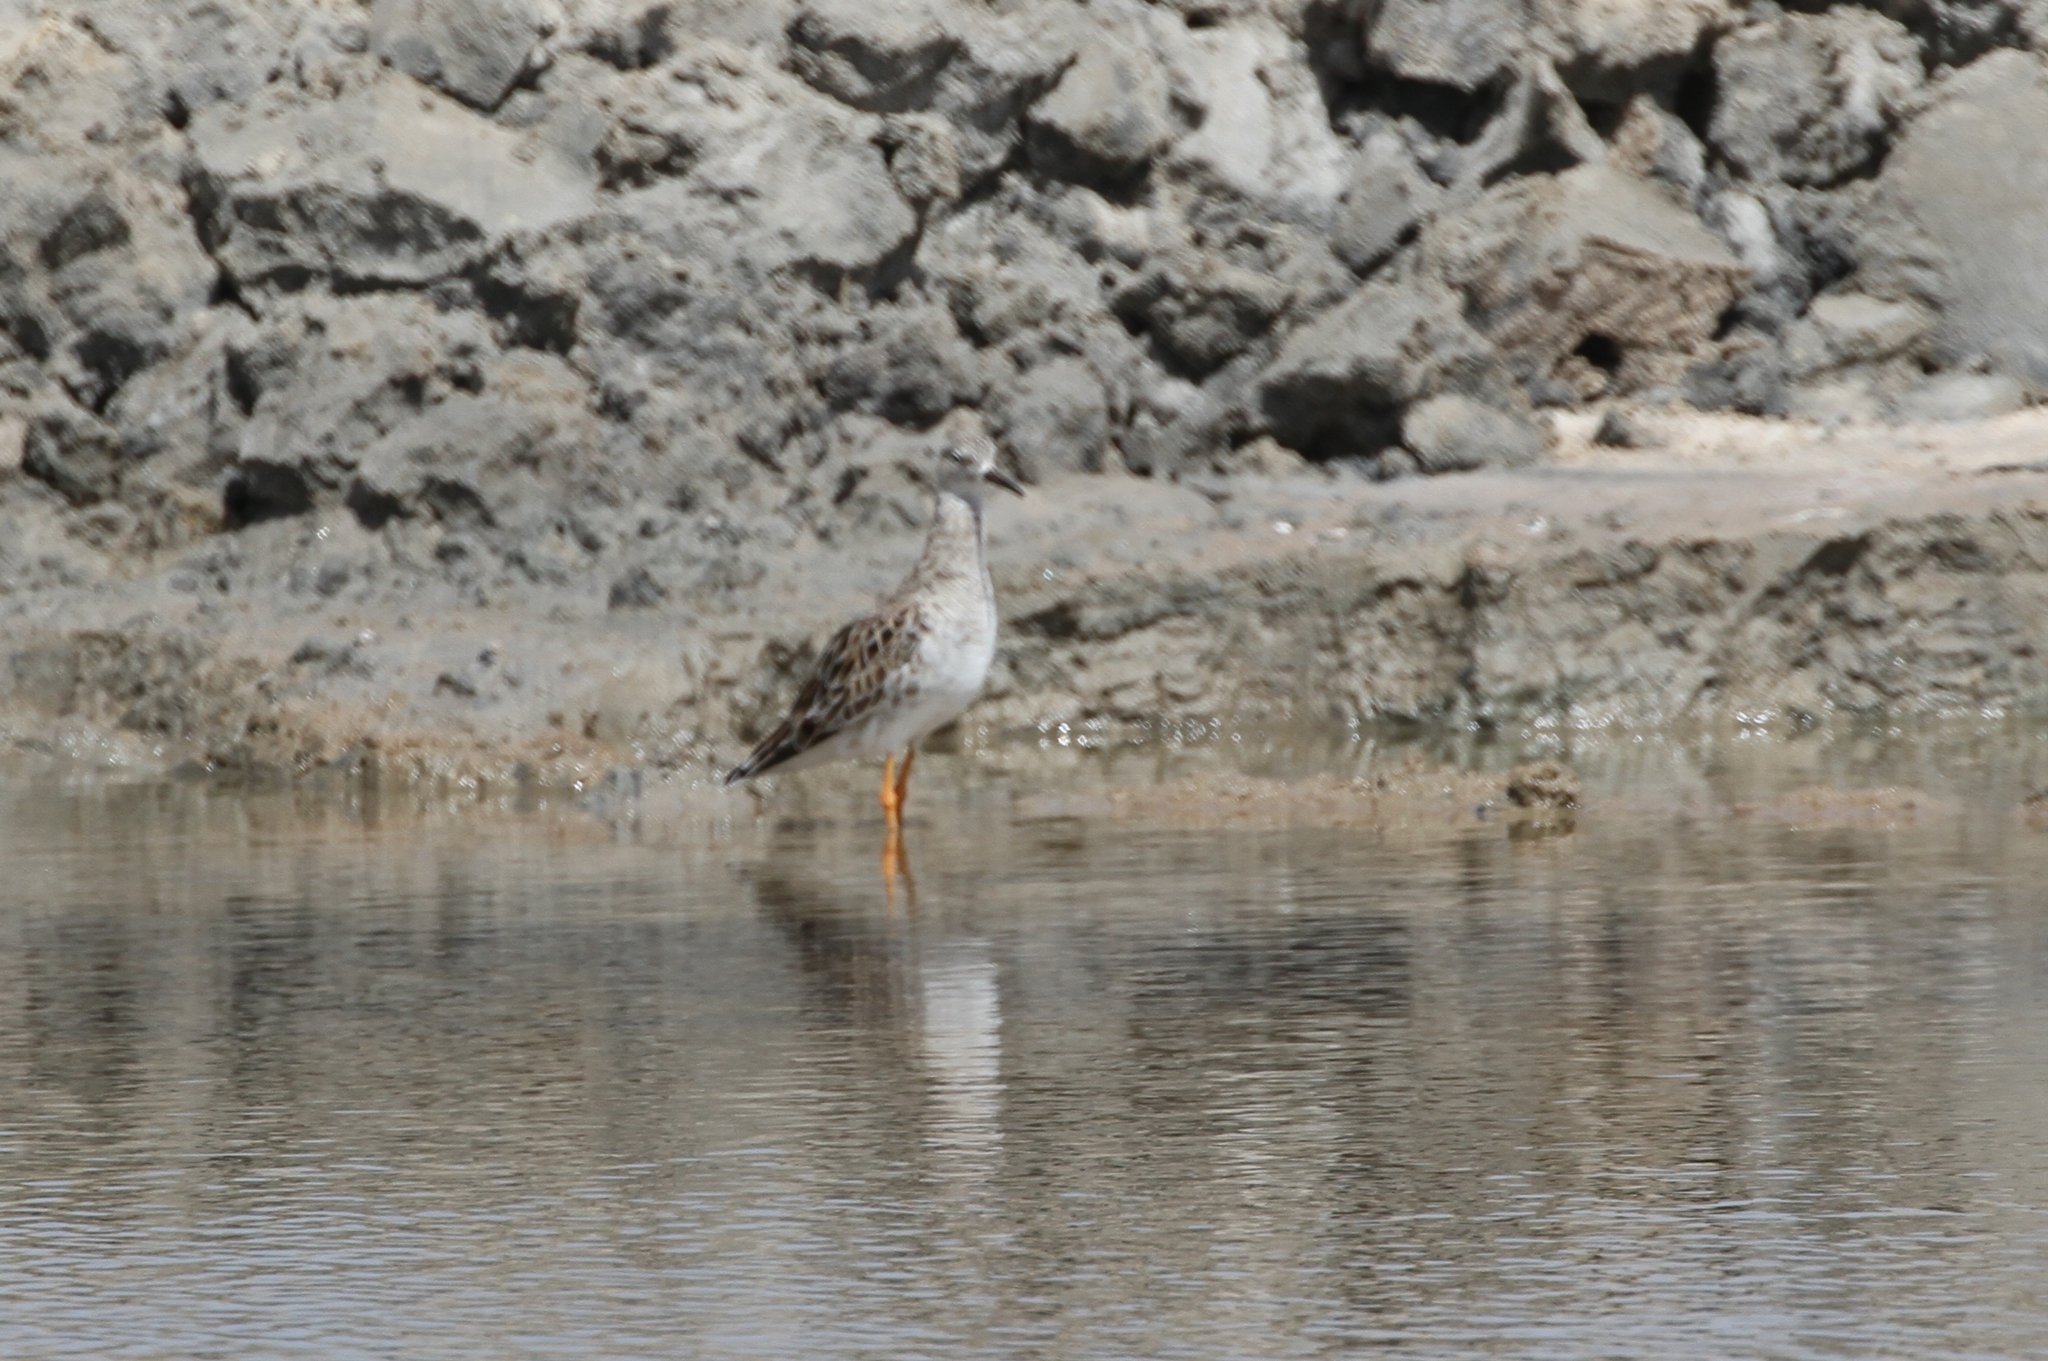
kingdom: Animalia
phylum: Chordata
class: Aves
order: Charadriiformes
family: Scolopacidae
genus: Calidris
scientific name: Calidris pugnax
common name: Ruff
